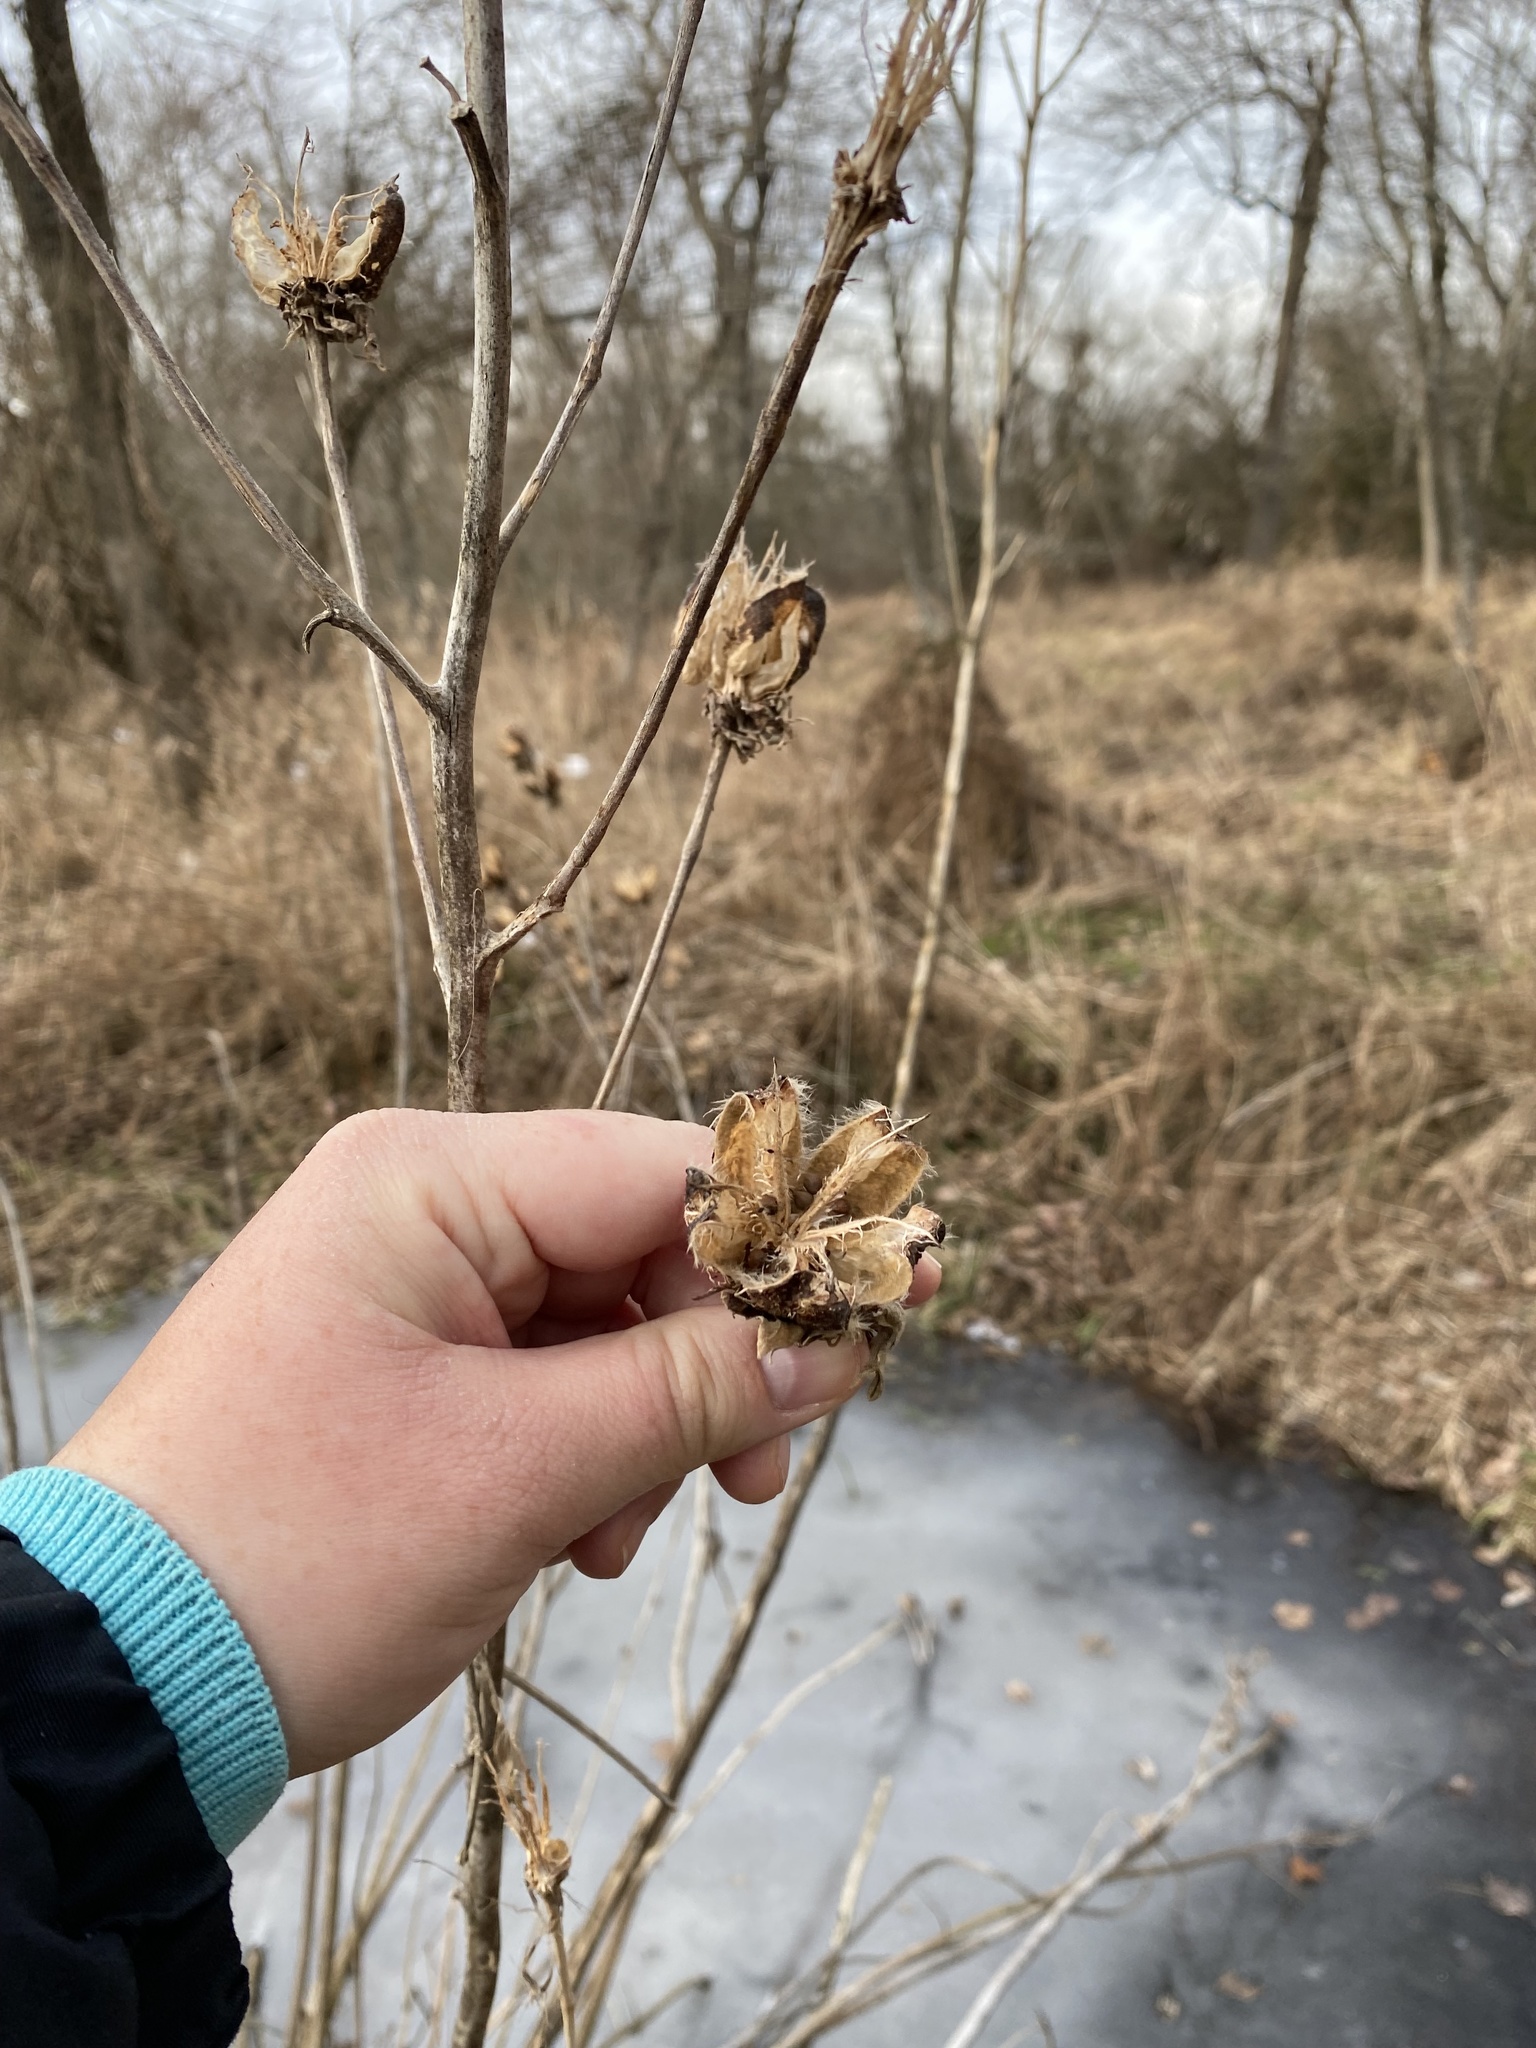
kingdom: Plantae
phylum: Tracheophyta
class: Magnoliopsida
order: Malvales
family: Malvaceae
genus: Hibiscus
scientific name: Hibiscus moscheutos
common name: Common rose-mallow
